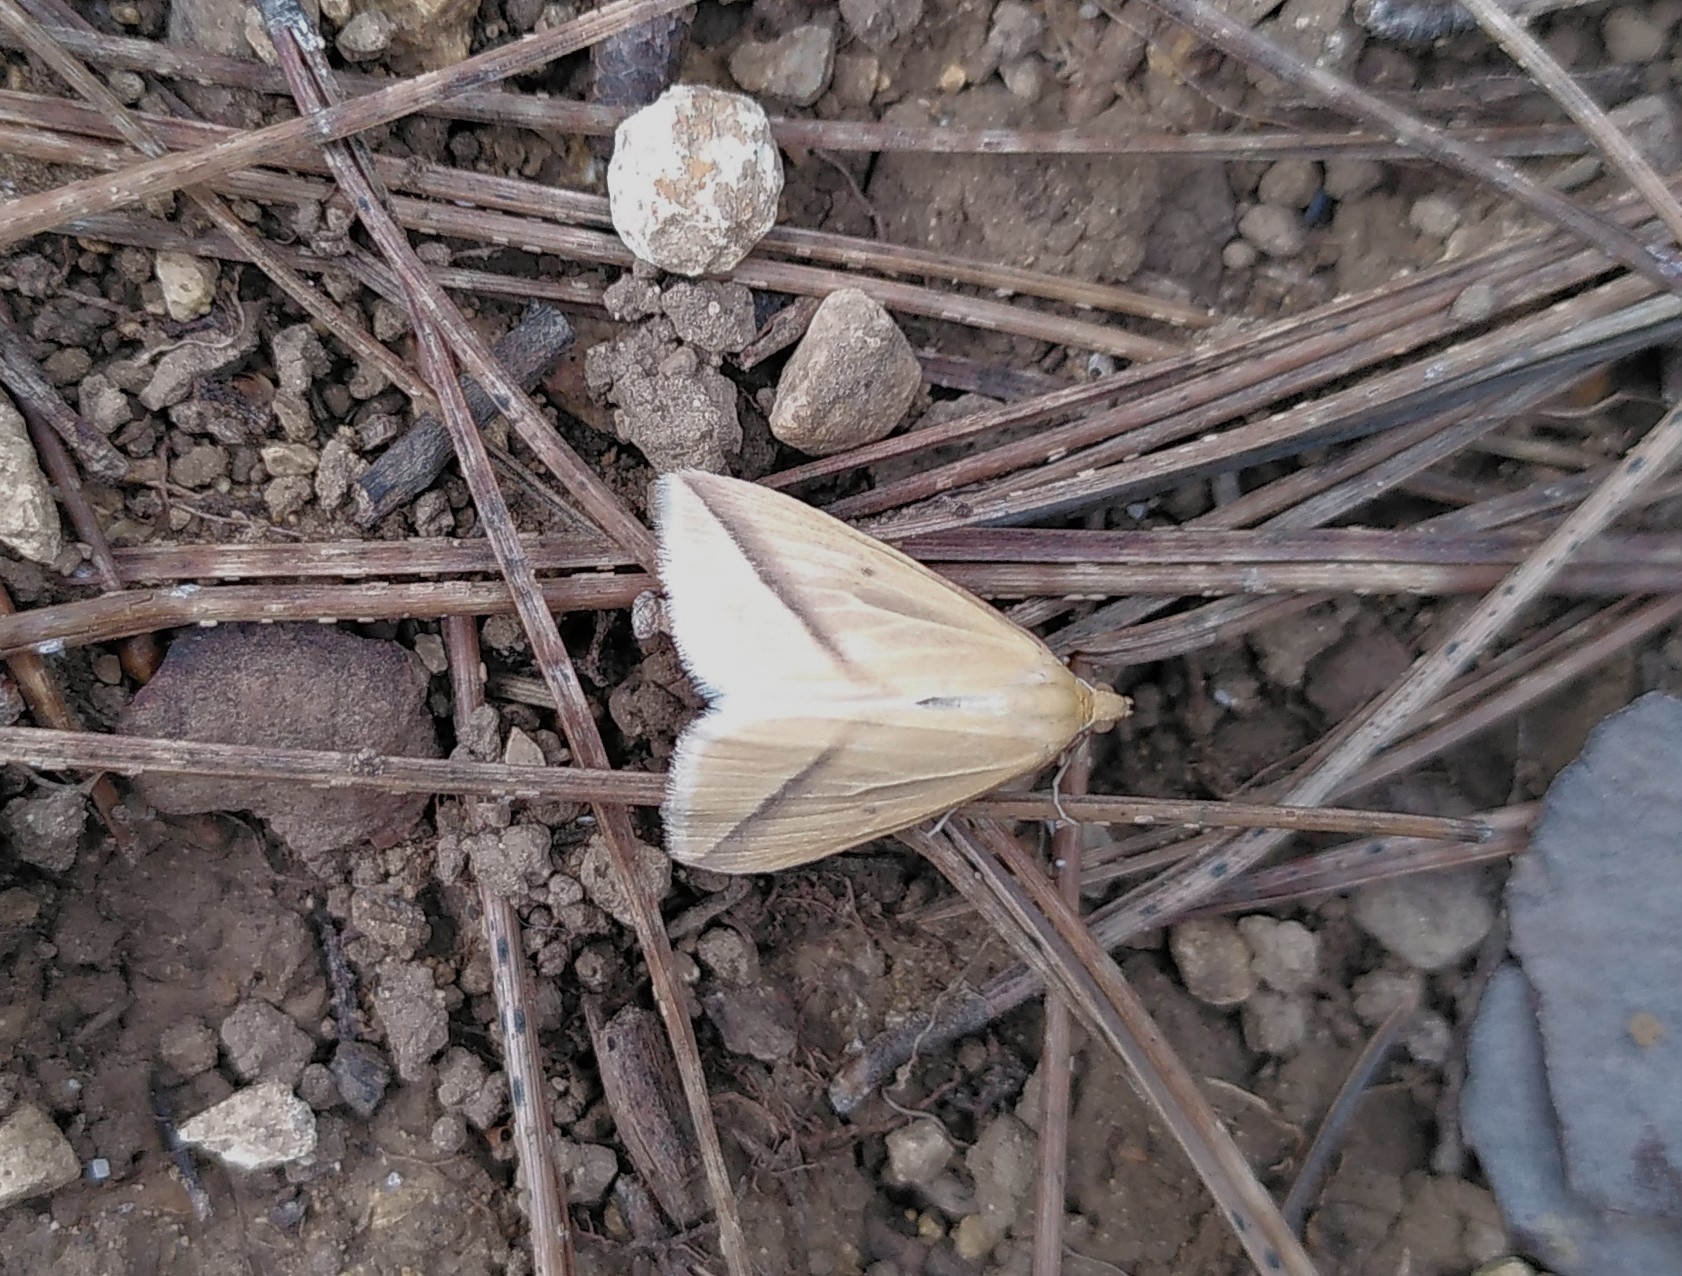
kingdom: Animalia
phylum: Arthropoda
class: Insecta
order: Lepidoptera
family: Geometridae
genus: Rhodometra
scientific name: Rhodometra sacraria
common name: Vestal
